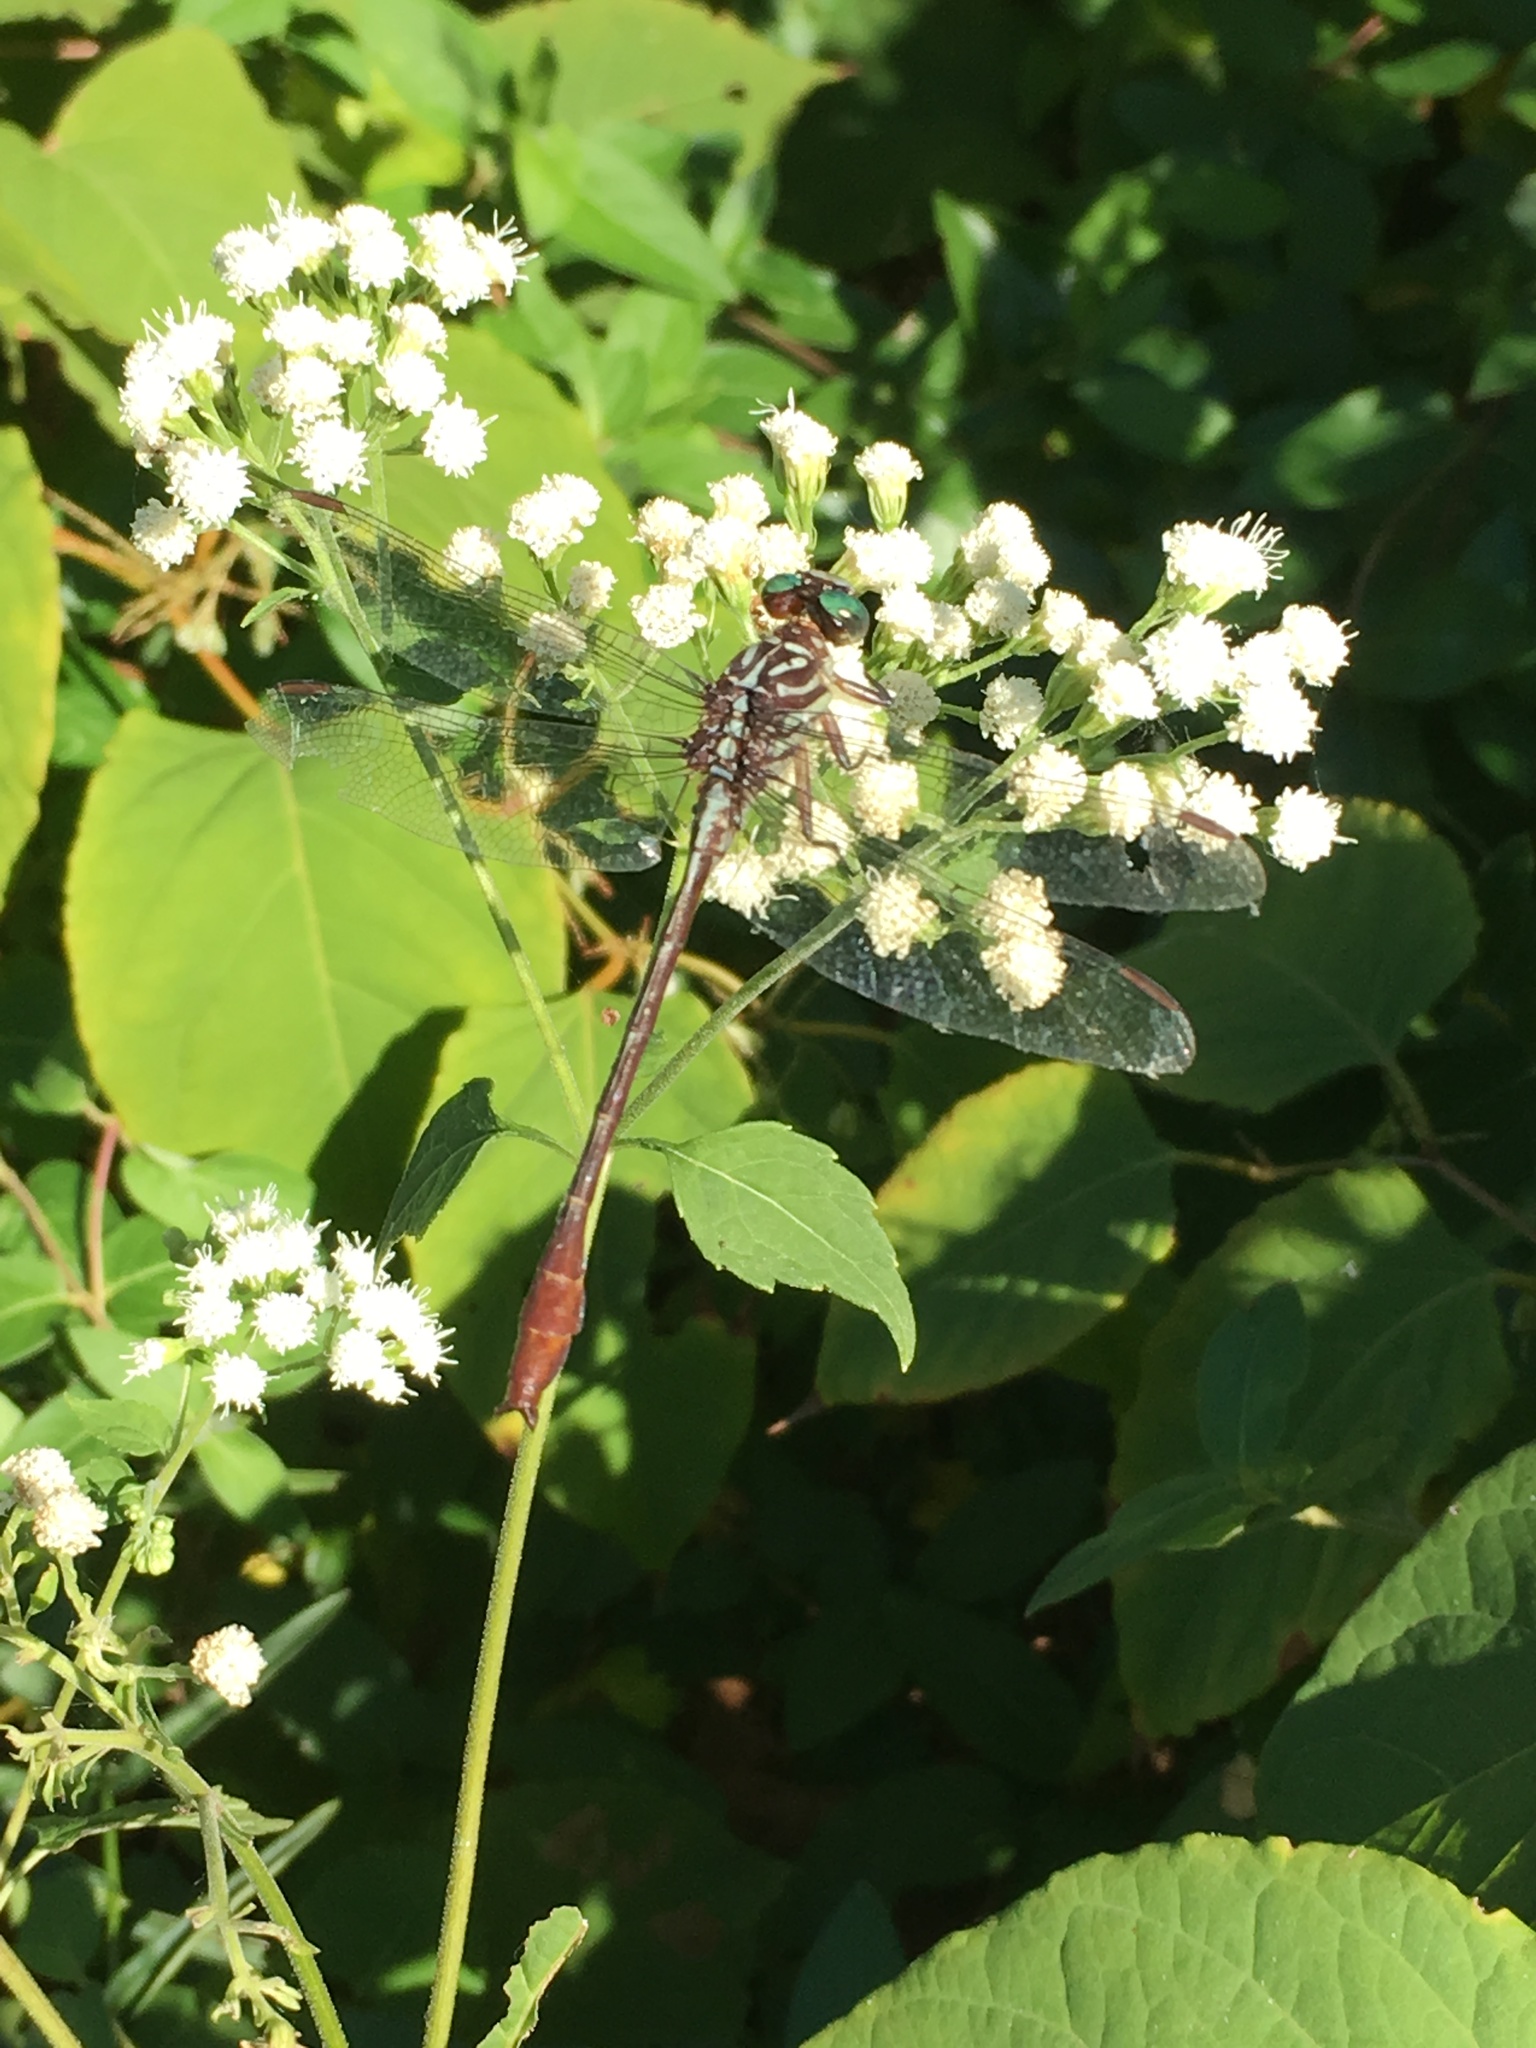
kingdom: Animalia
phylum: Arthropoda
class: Insecta
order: Odonata
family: Gomphidae
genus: Stylurus
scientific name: Stylurus plagiatus
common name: Russet-tipped clubtail
